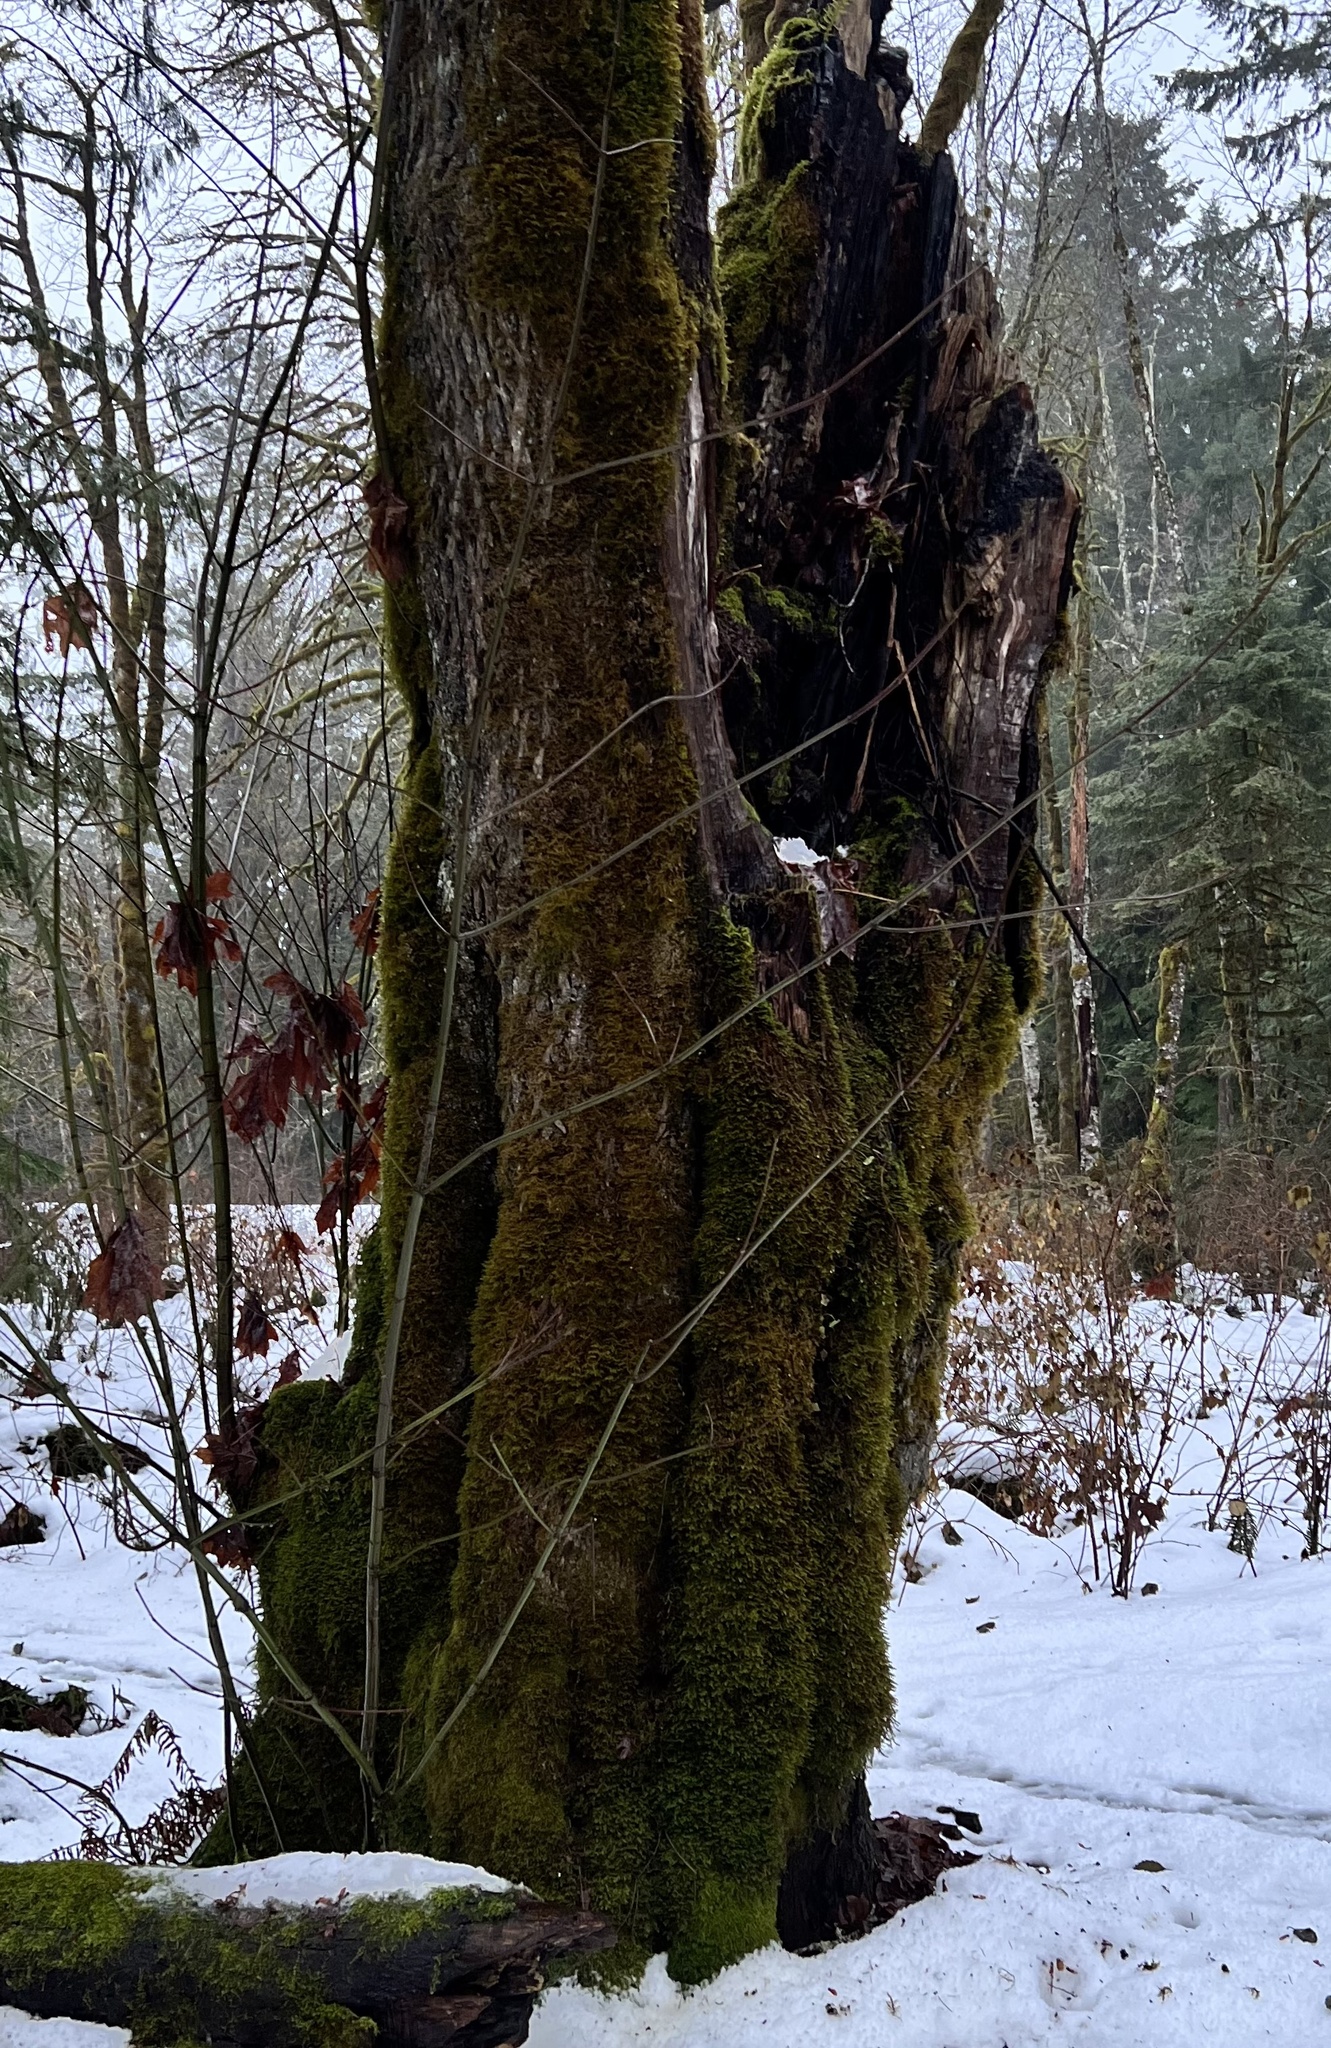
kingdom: Plantae
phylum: Tracheophyta
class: Magnoliopsida
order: Sapindales
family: Sapindaceae
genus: Acer
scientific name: Acer macrophyllum
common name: Oregon maple
